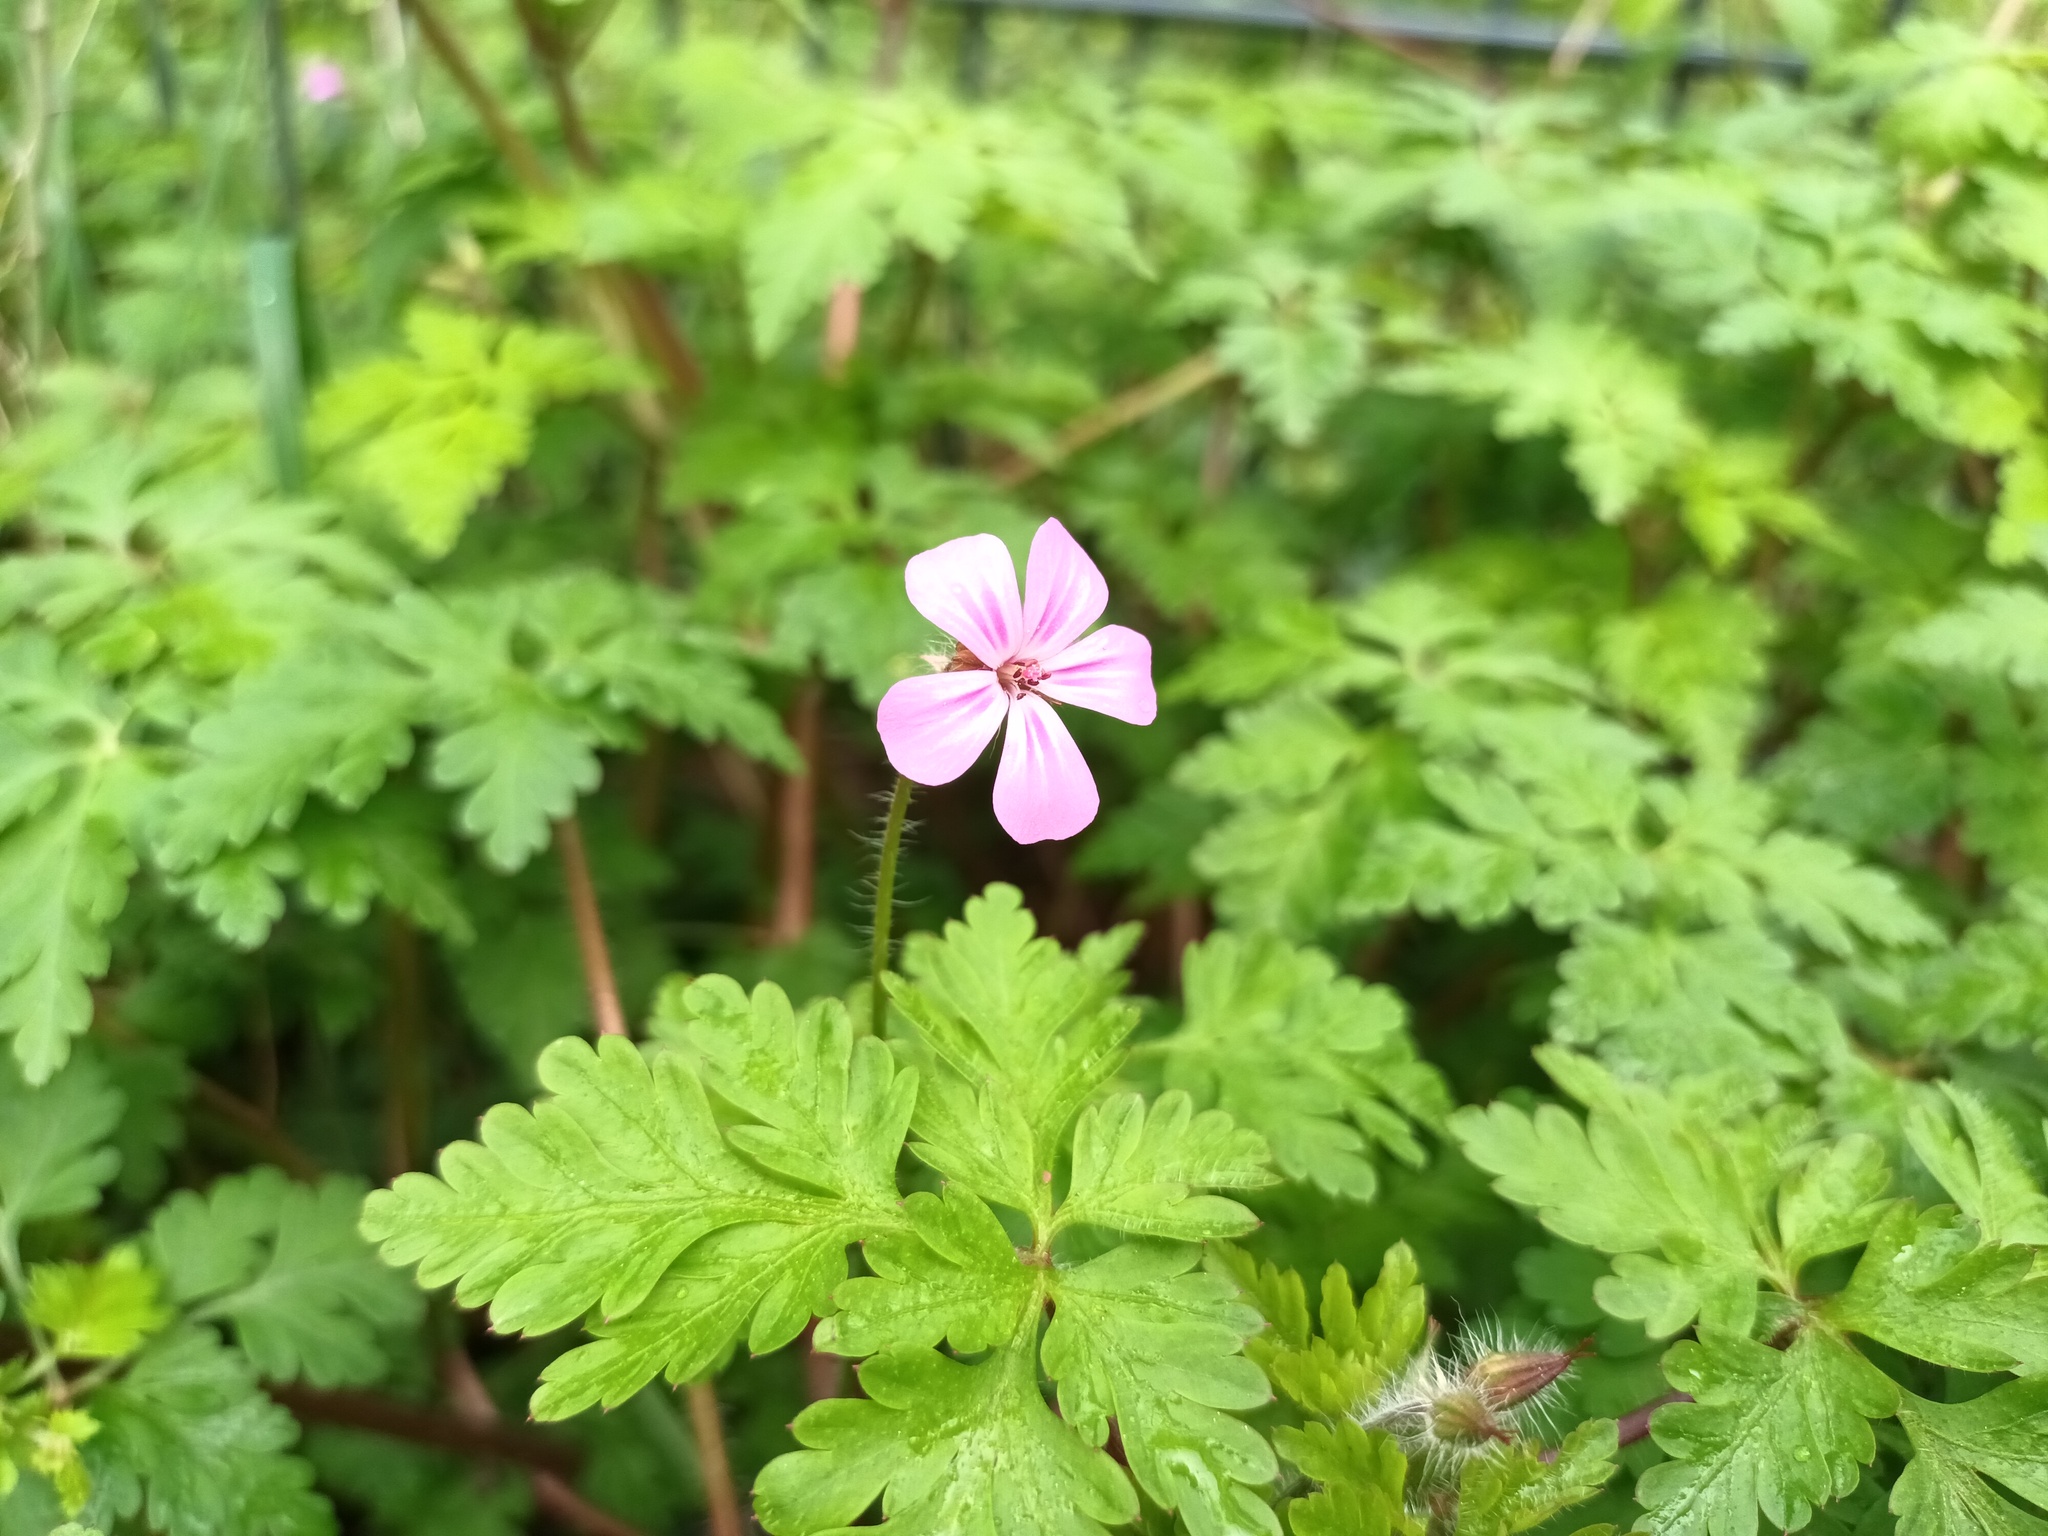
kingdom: Plantae
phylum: Tracheophyta
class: Magnoliopsida
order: Geraniales
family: Geraniaceae
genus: Geranium
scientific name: Geranium robertianum
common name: Herb-robert
